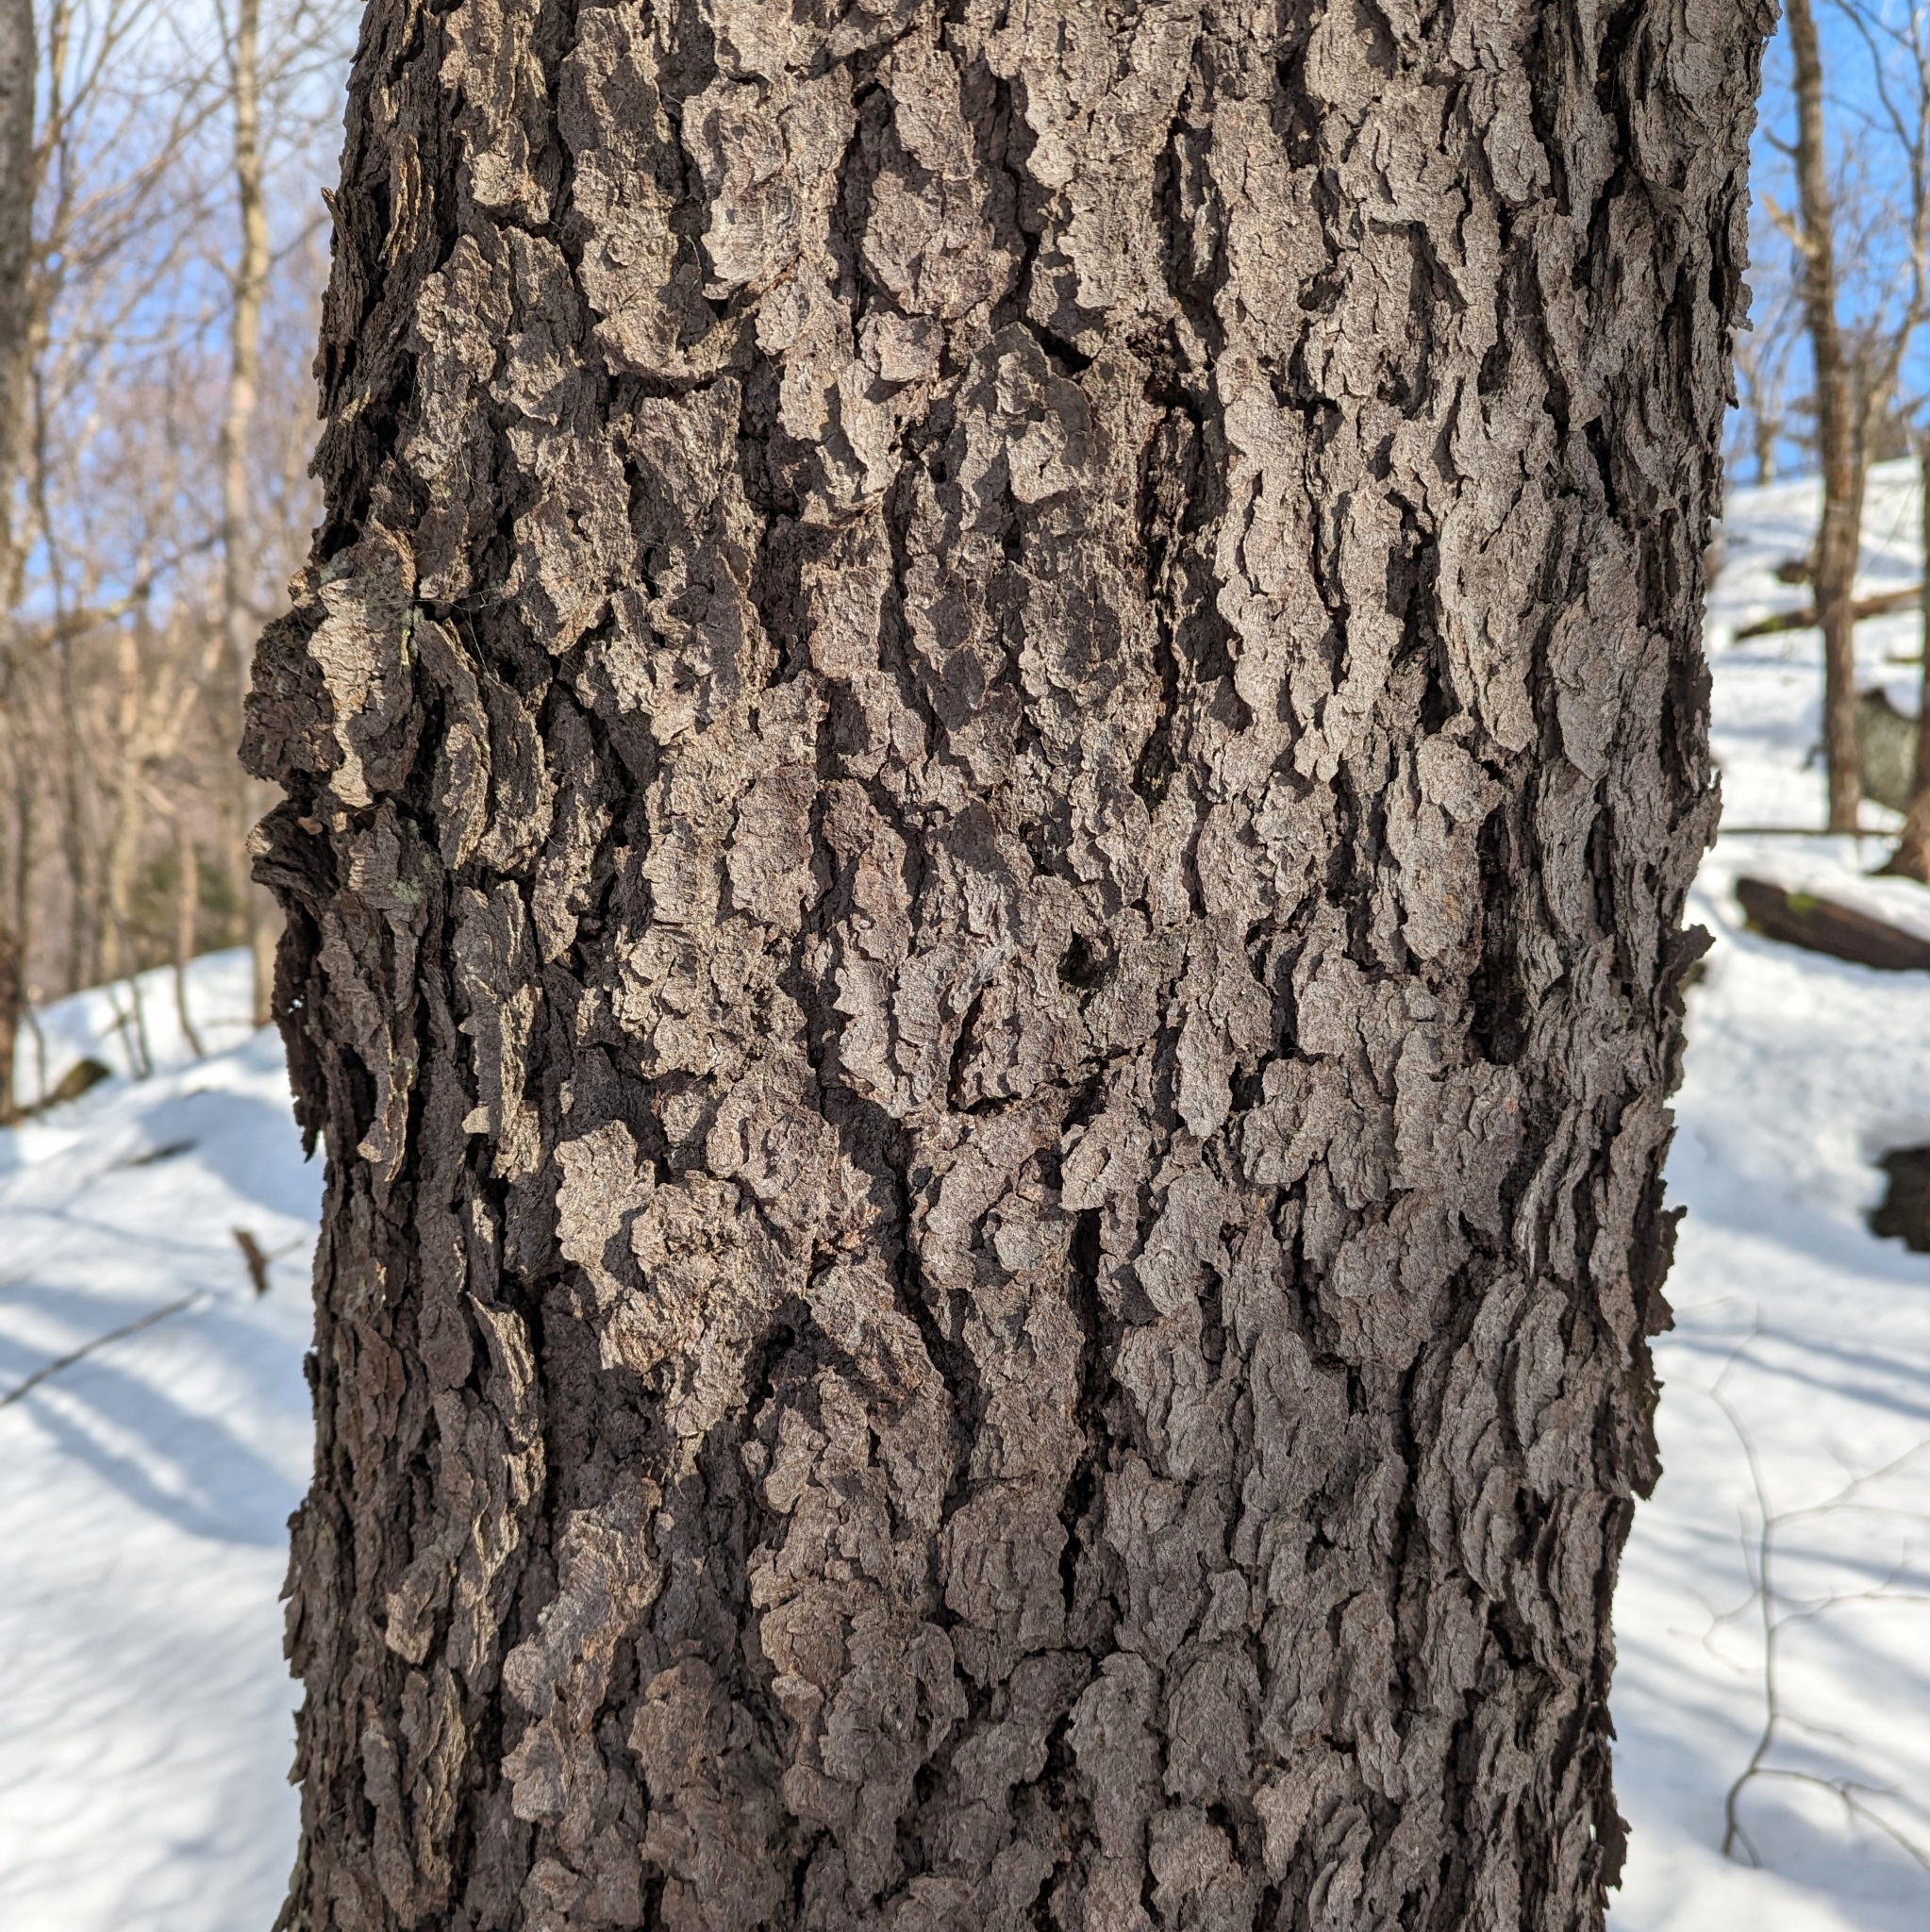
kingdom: Plantae
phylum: Tracheophyta
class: Magnoliopsida
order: Rosales
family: Rosaceae
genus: Prunus
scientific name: Prunus serotina
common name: Black cherry
